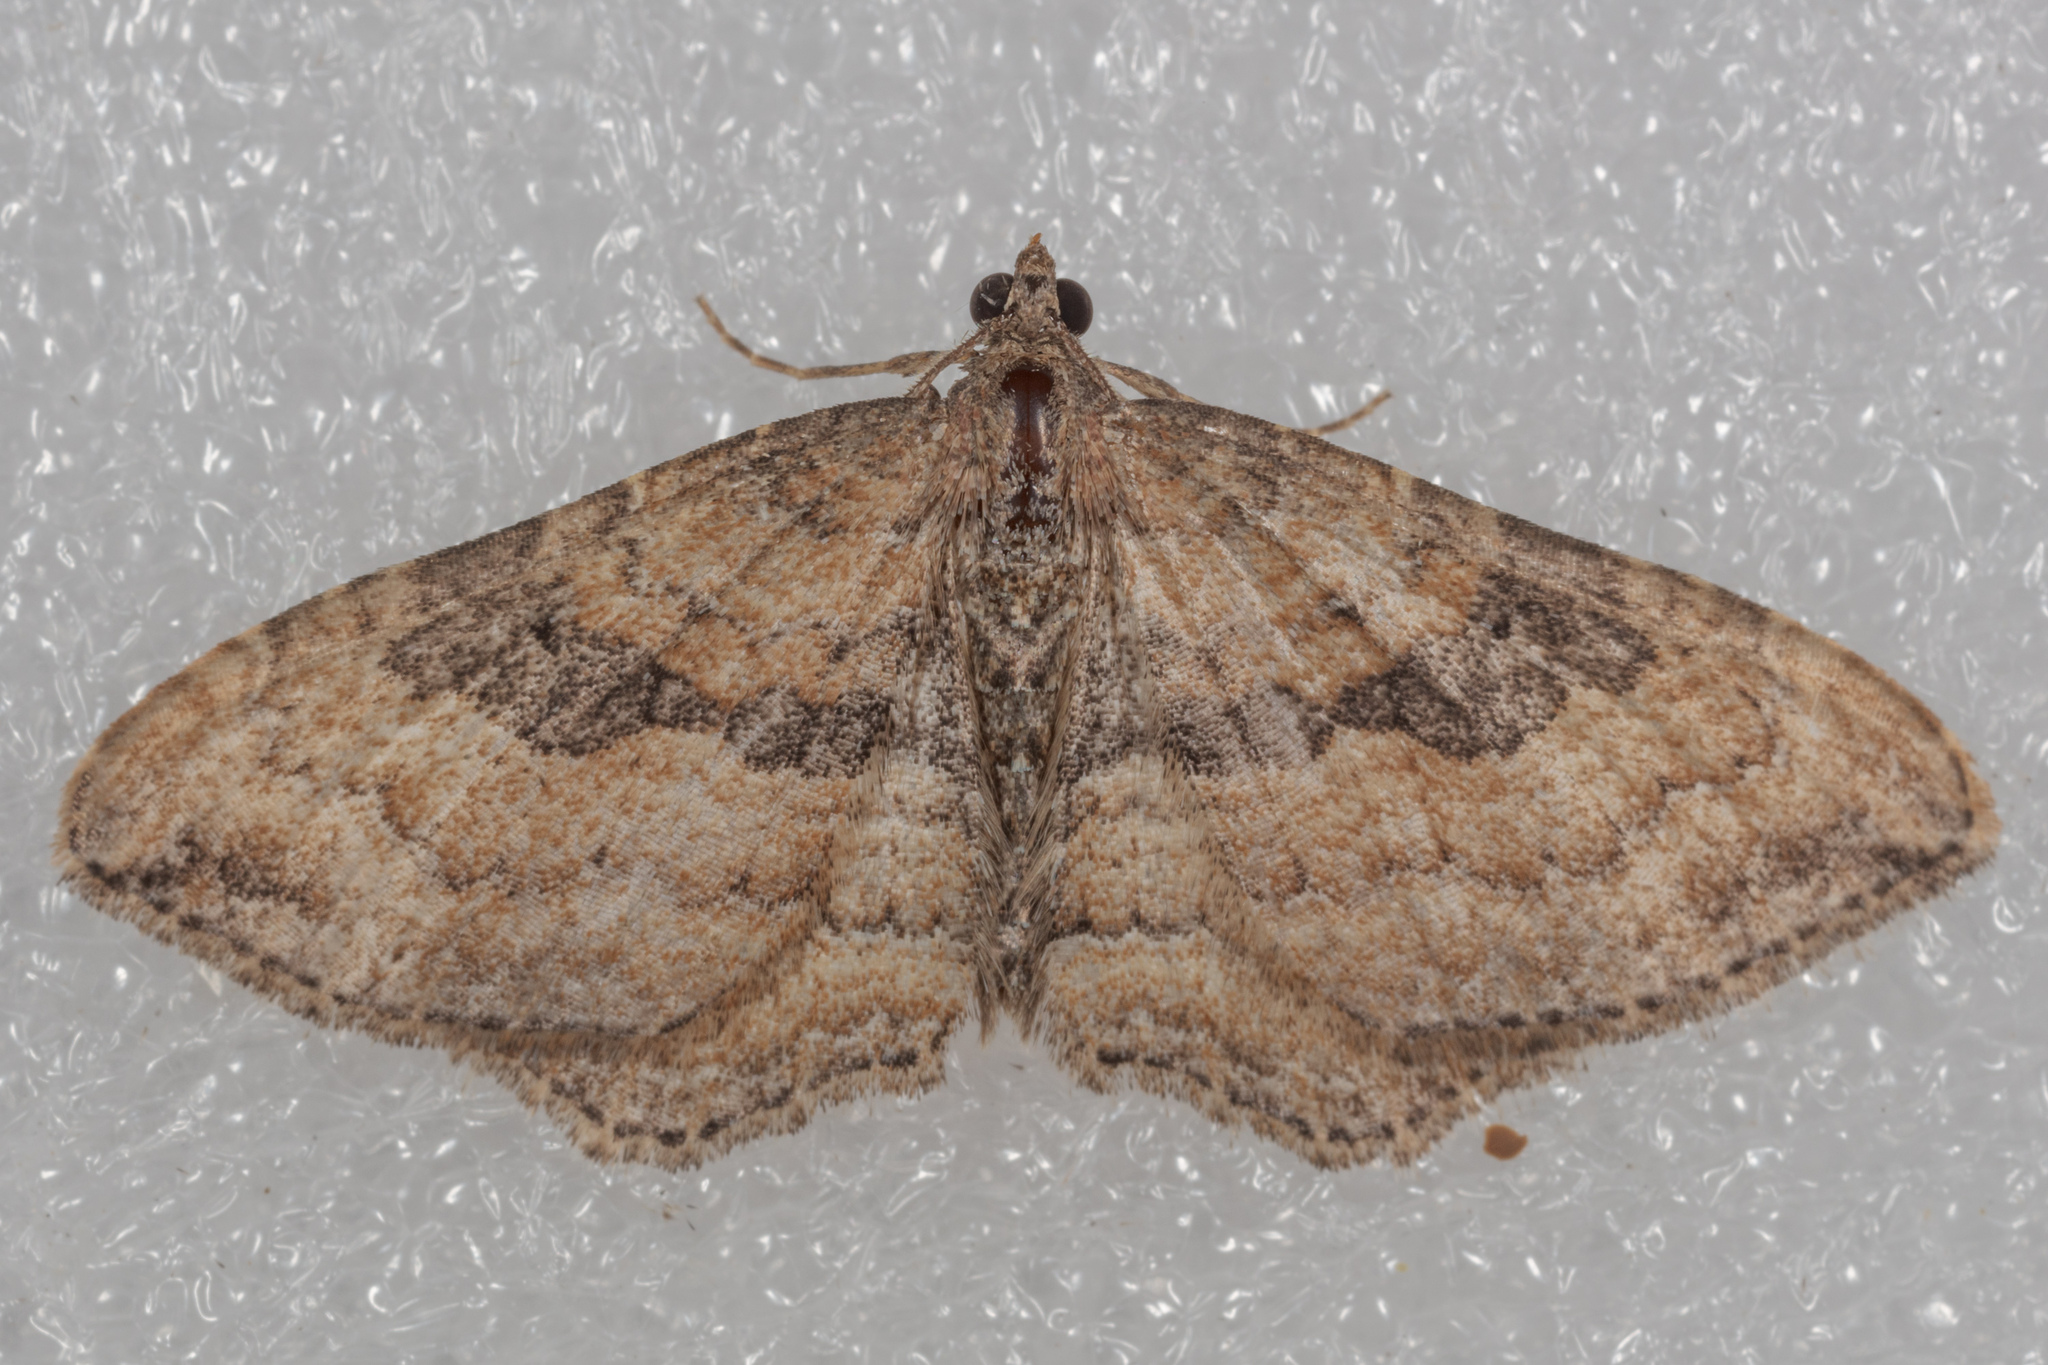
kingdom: Animalia
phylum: Arthropoda
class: Insecta
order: Lepidoptera
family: Geometridae
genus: Orthonama
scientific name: Orthonama obstipata
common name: The gem
